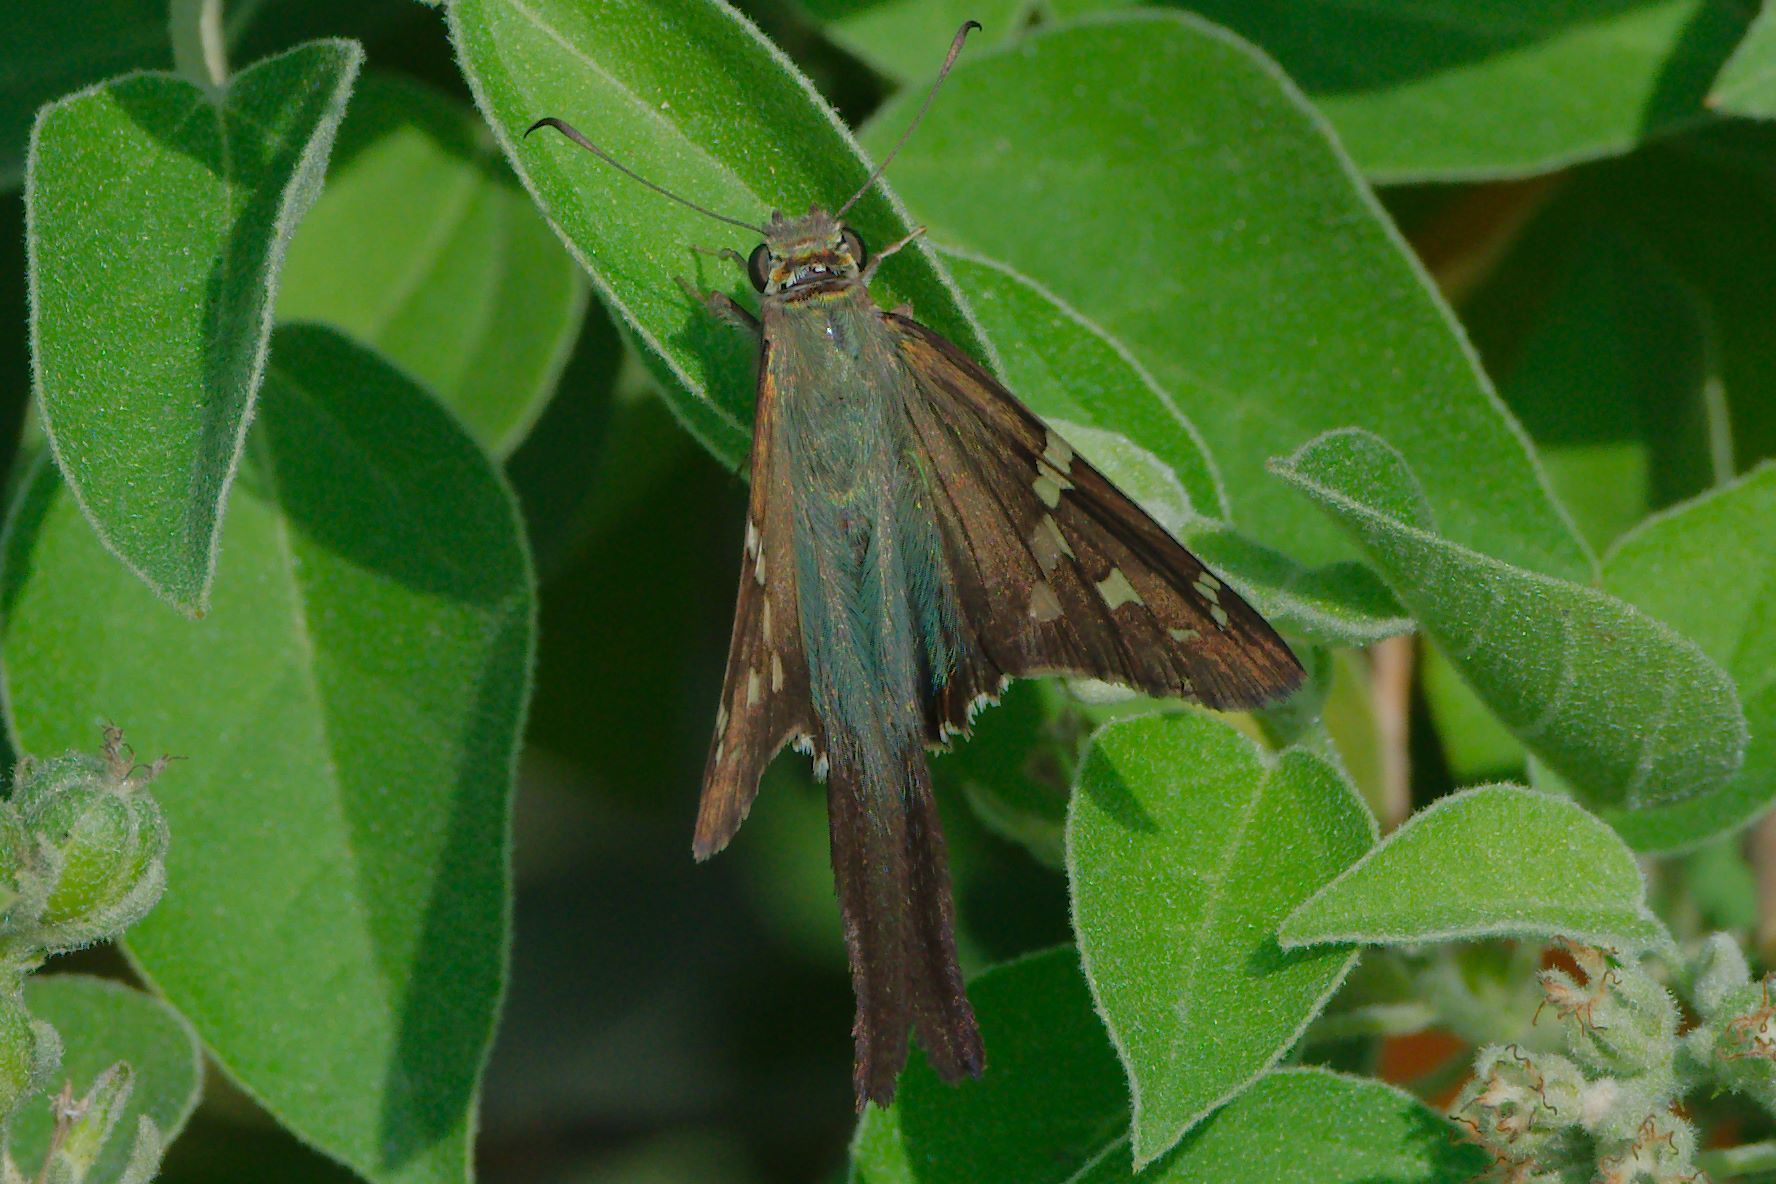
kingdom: Animalia
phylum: Arthropoda
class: Insecta
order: Lepidoptera
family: Hesperiidae
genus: Urbanus
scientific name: Urbanus proteus
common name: Long-tailed skipper
